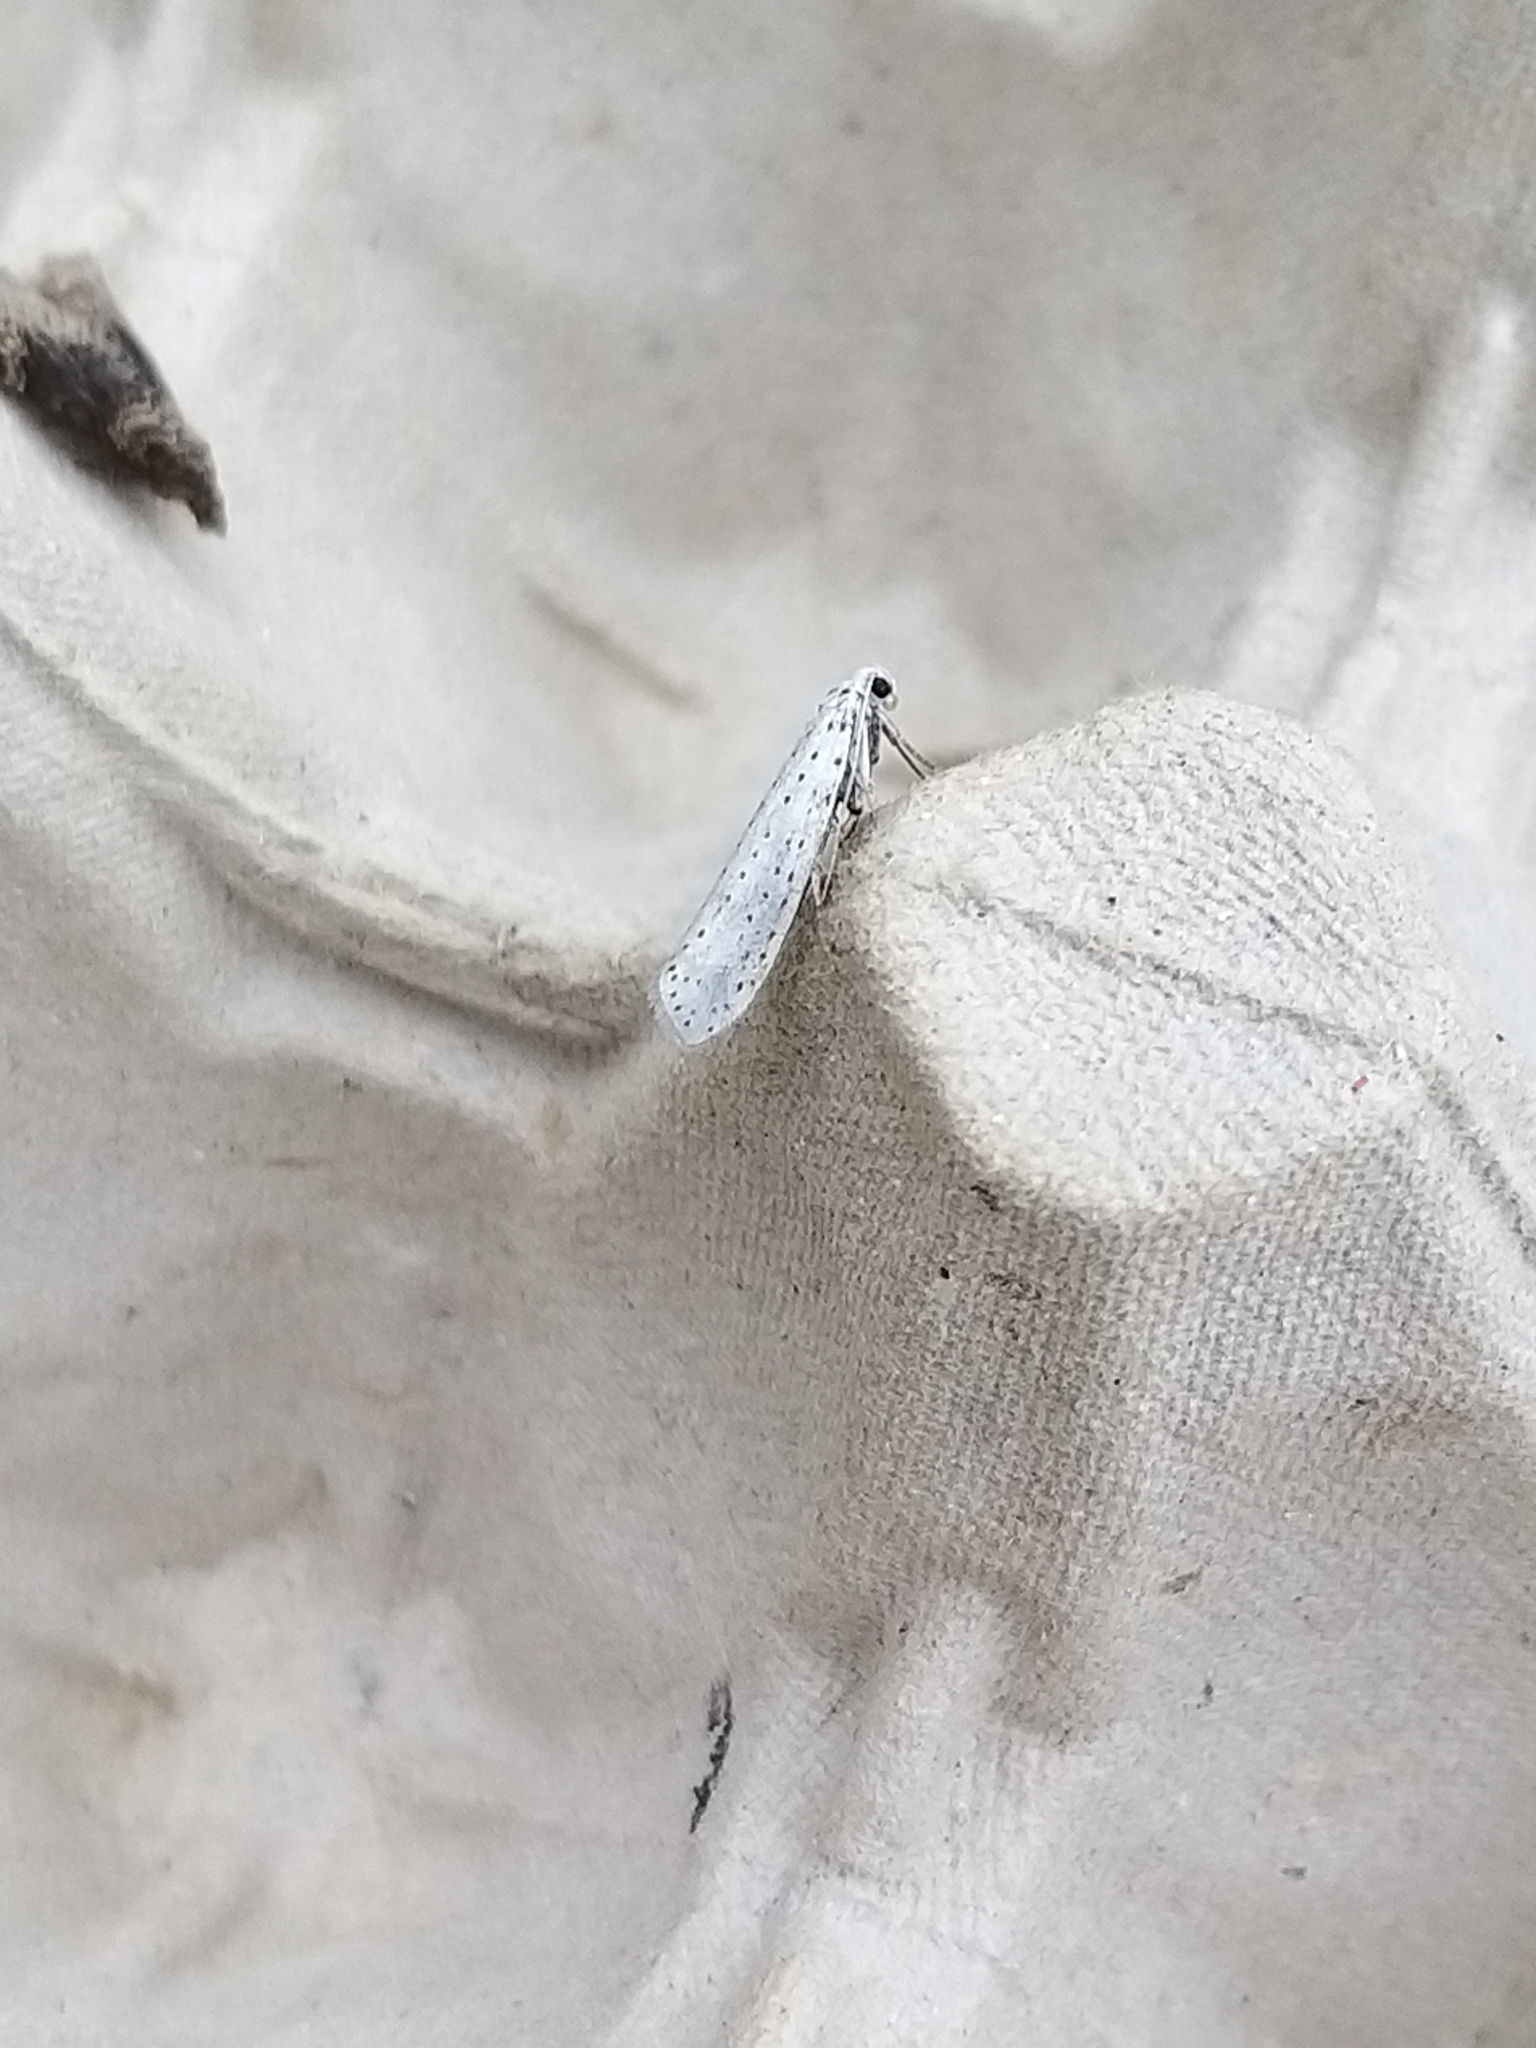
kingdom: Animalia
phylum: Arthropoda
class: Insecta
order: Lepidoptera
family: Yponomeutidae
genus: Yponomeuta
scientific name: Yponomeuta evonymella
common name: Bird-cherry ermine
